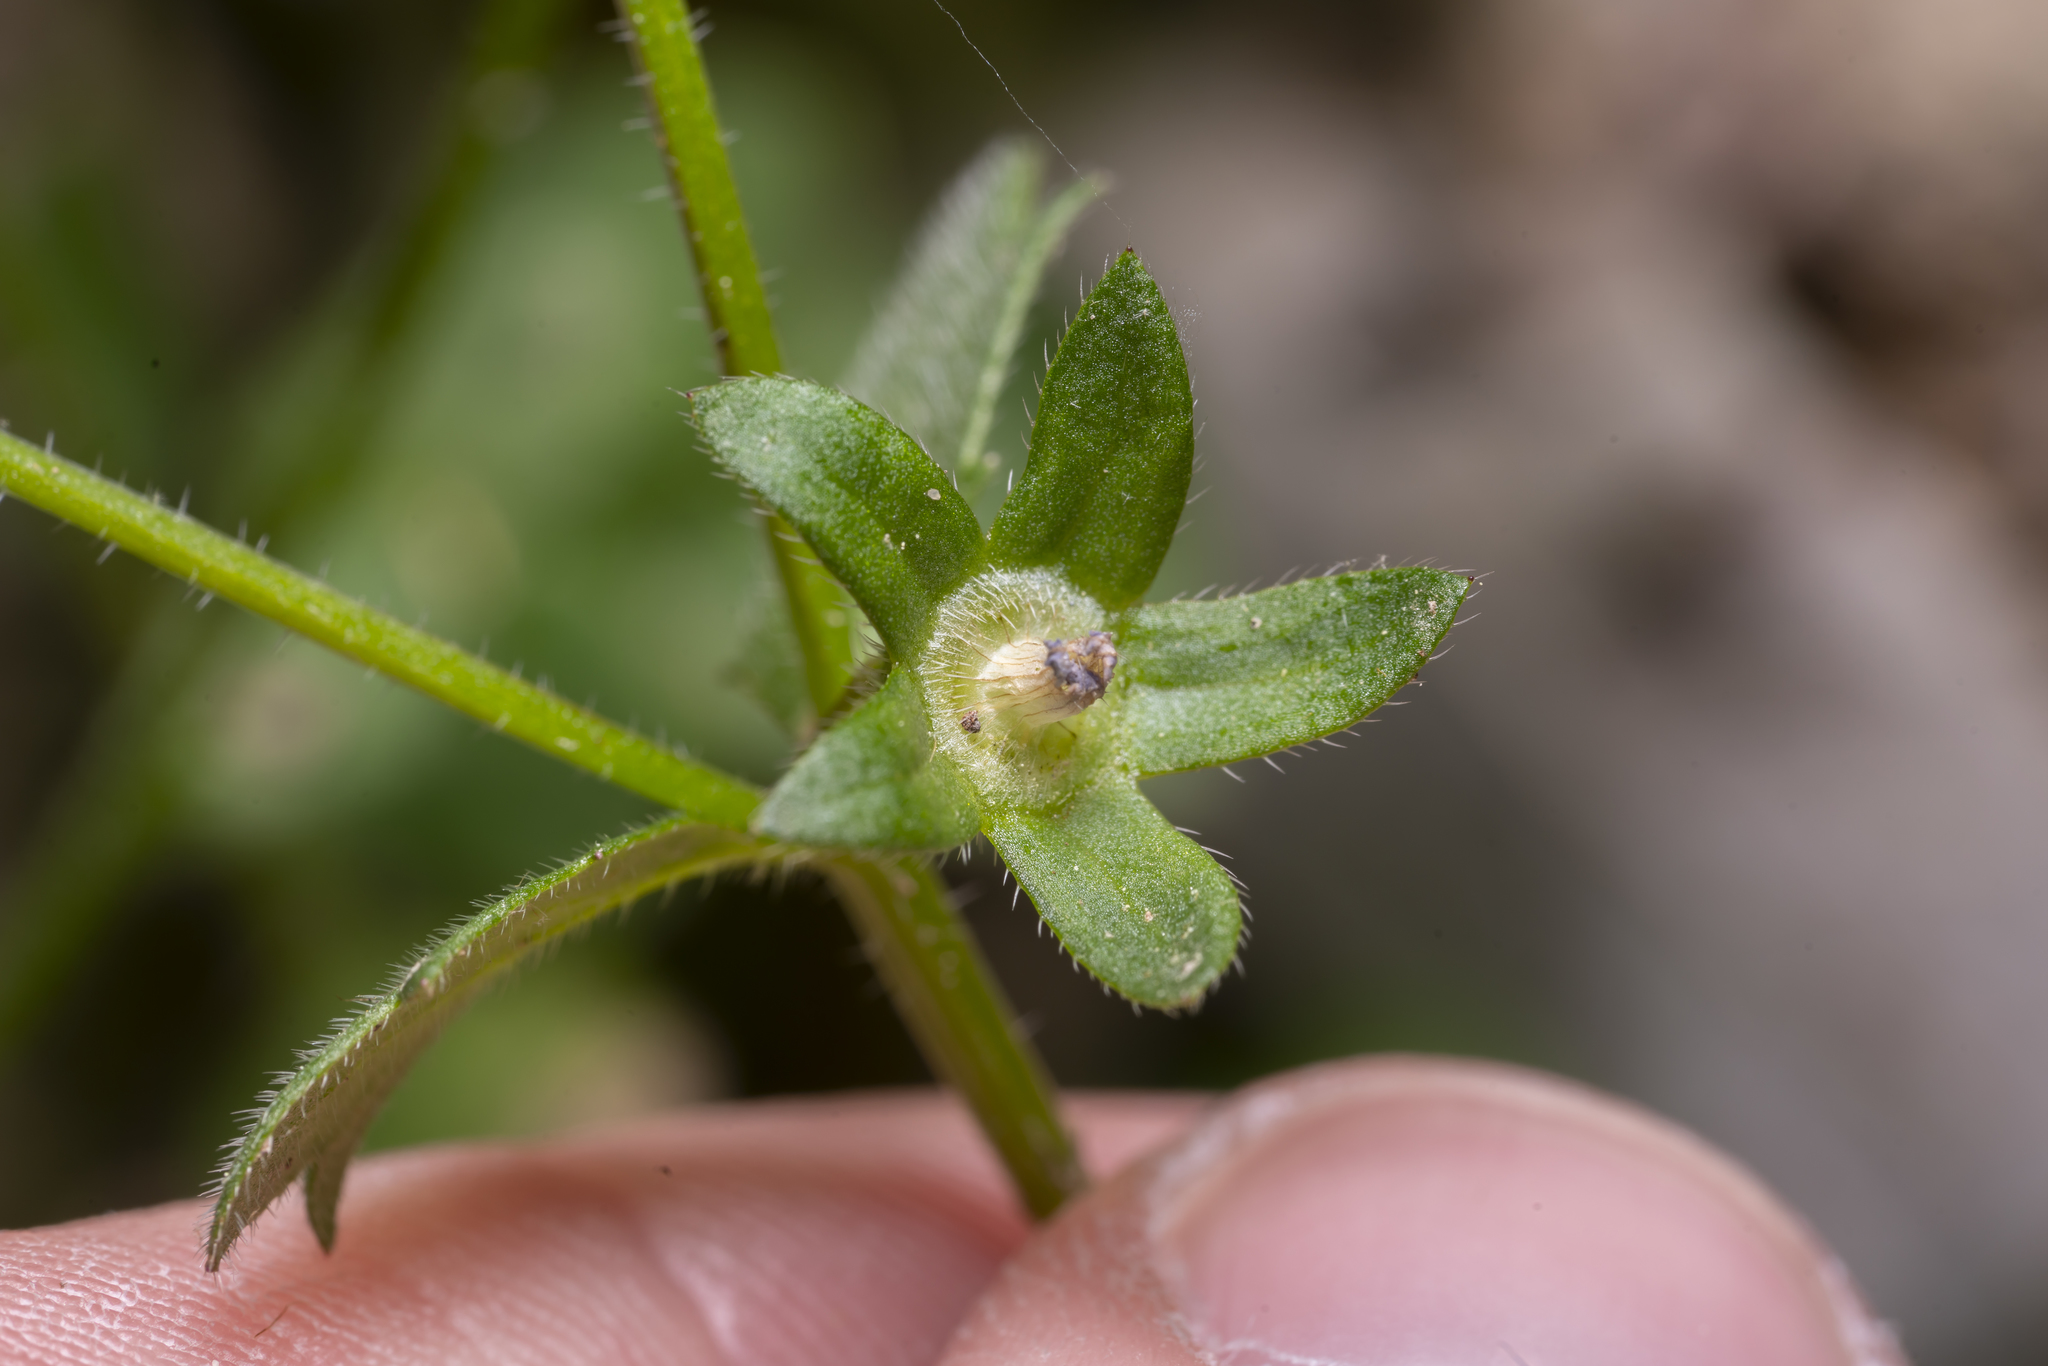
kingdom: Plantae
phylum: Tracheophyta
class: Magnoliopsida
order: Asterales
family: Campanulaceae
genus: Campanula
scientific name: Campanula erinus
